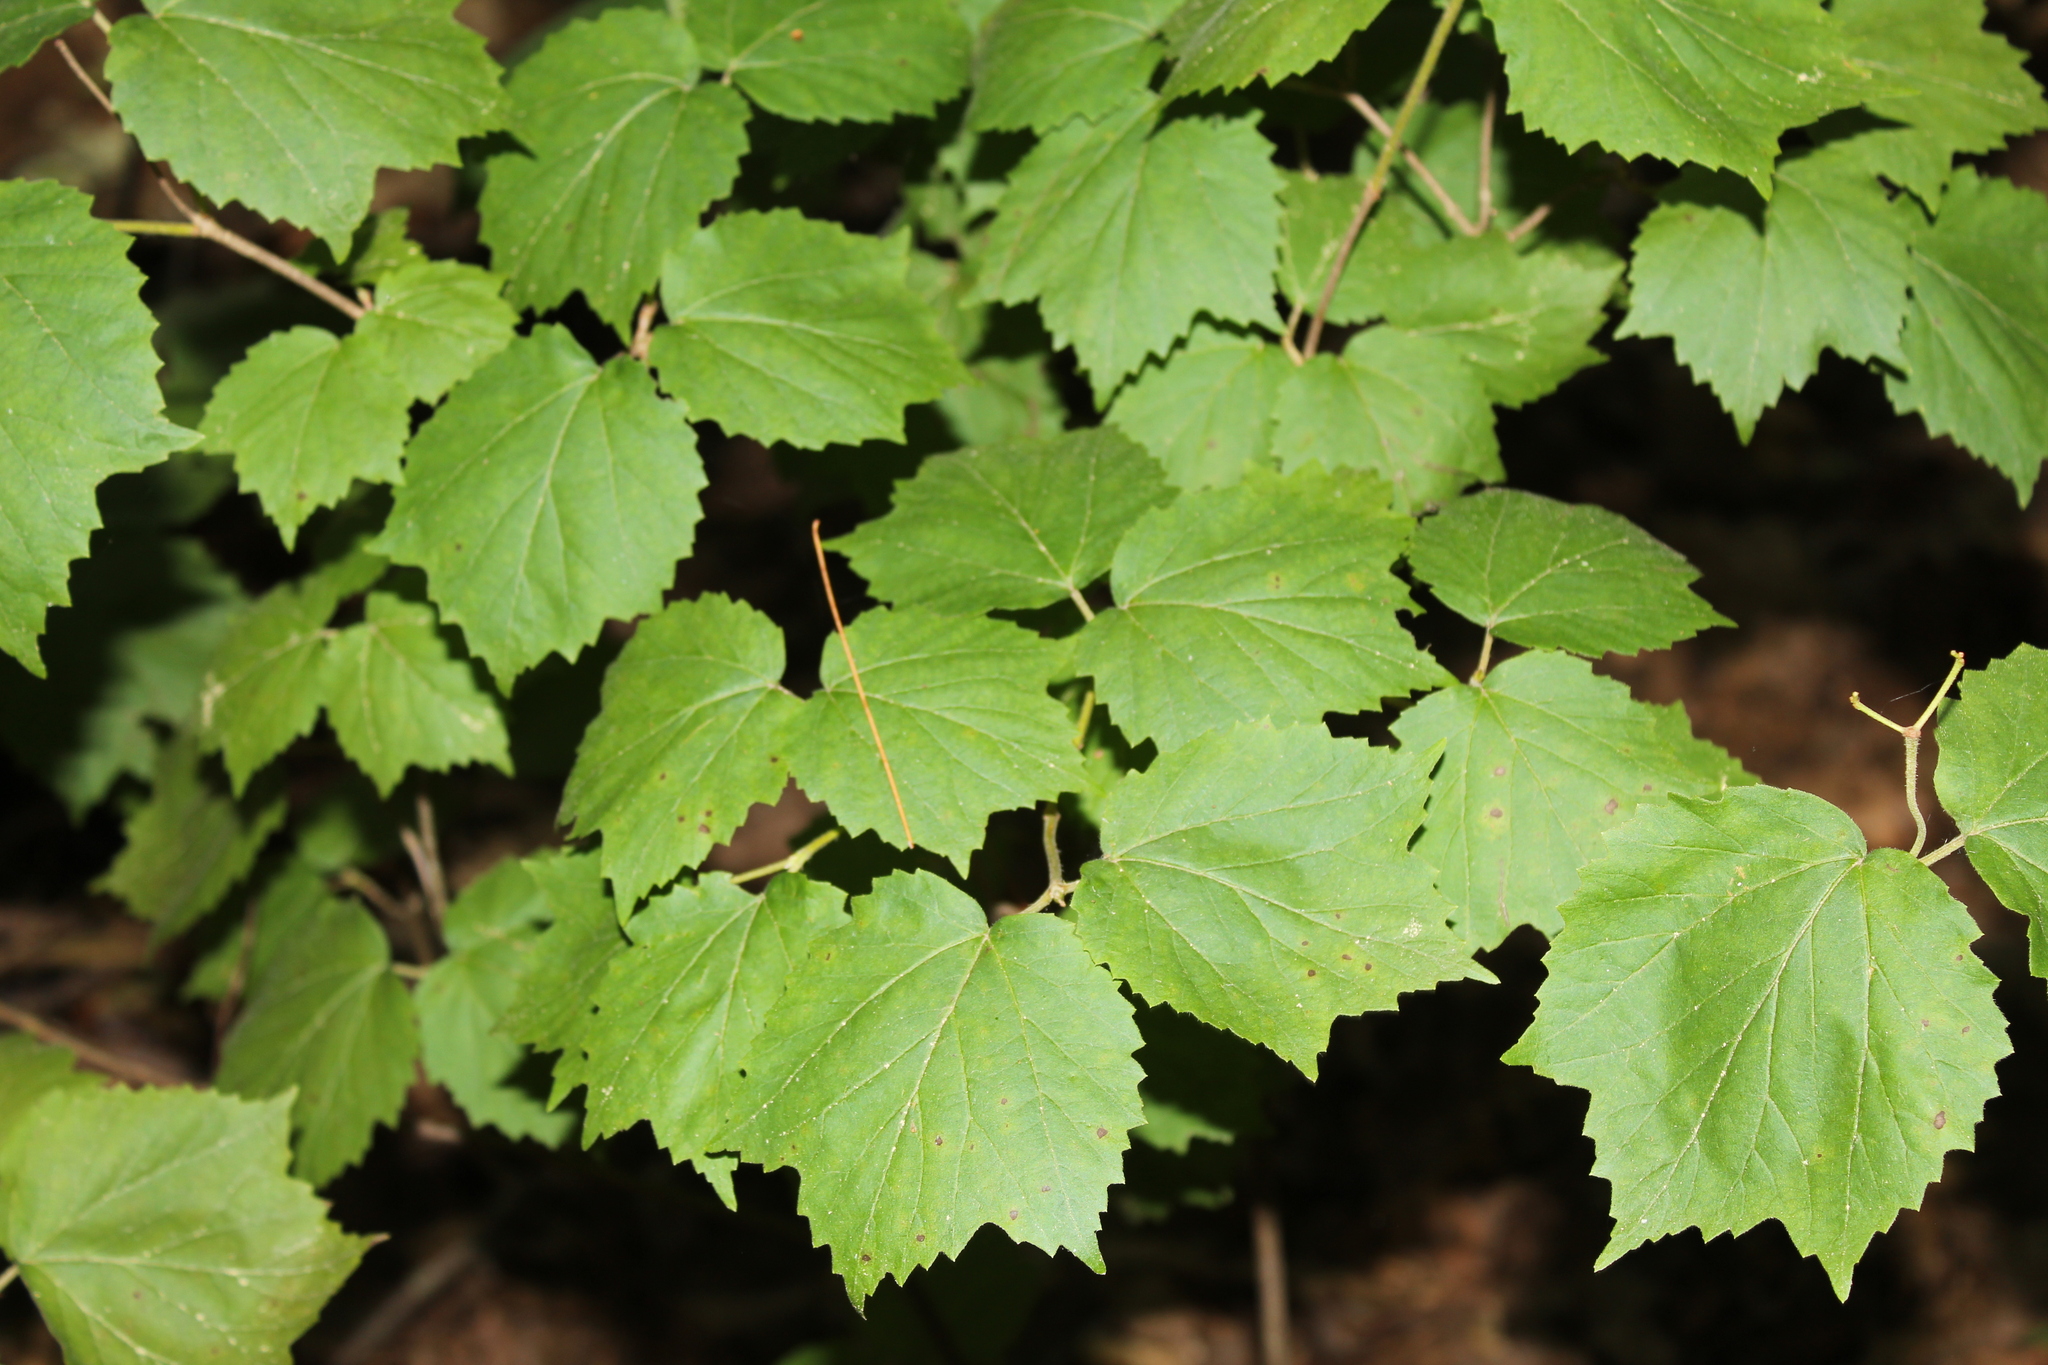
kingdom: Plantae
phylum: Tracheophyta
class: Magnoliopsida
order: Dipsacales
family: Viburnaceae
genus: Viburnum
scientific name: Viburnum acerifolium
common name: Dockmackie
